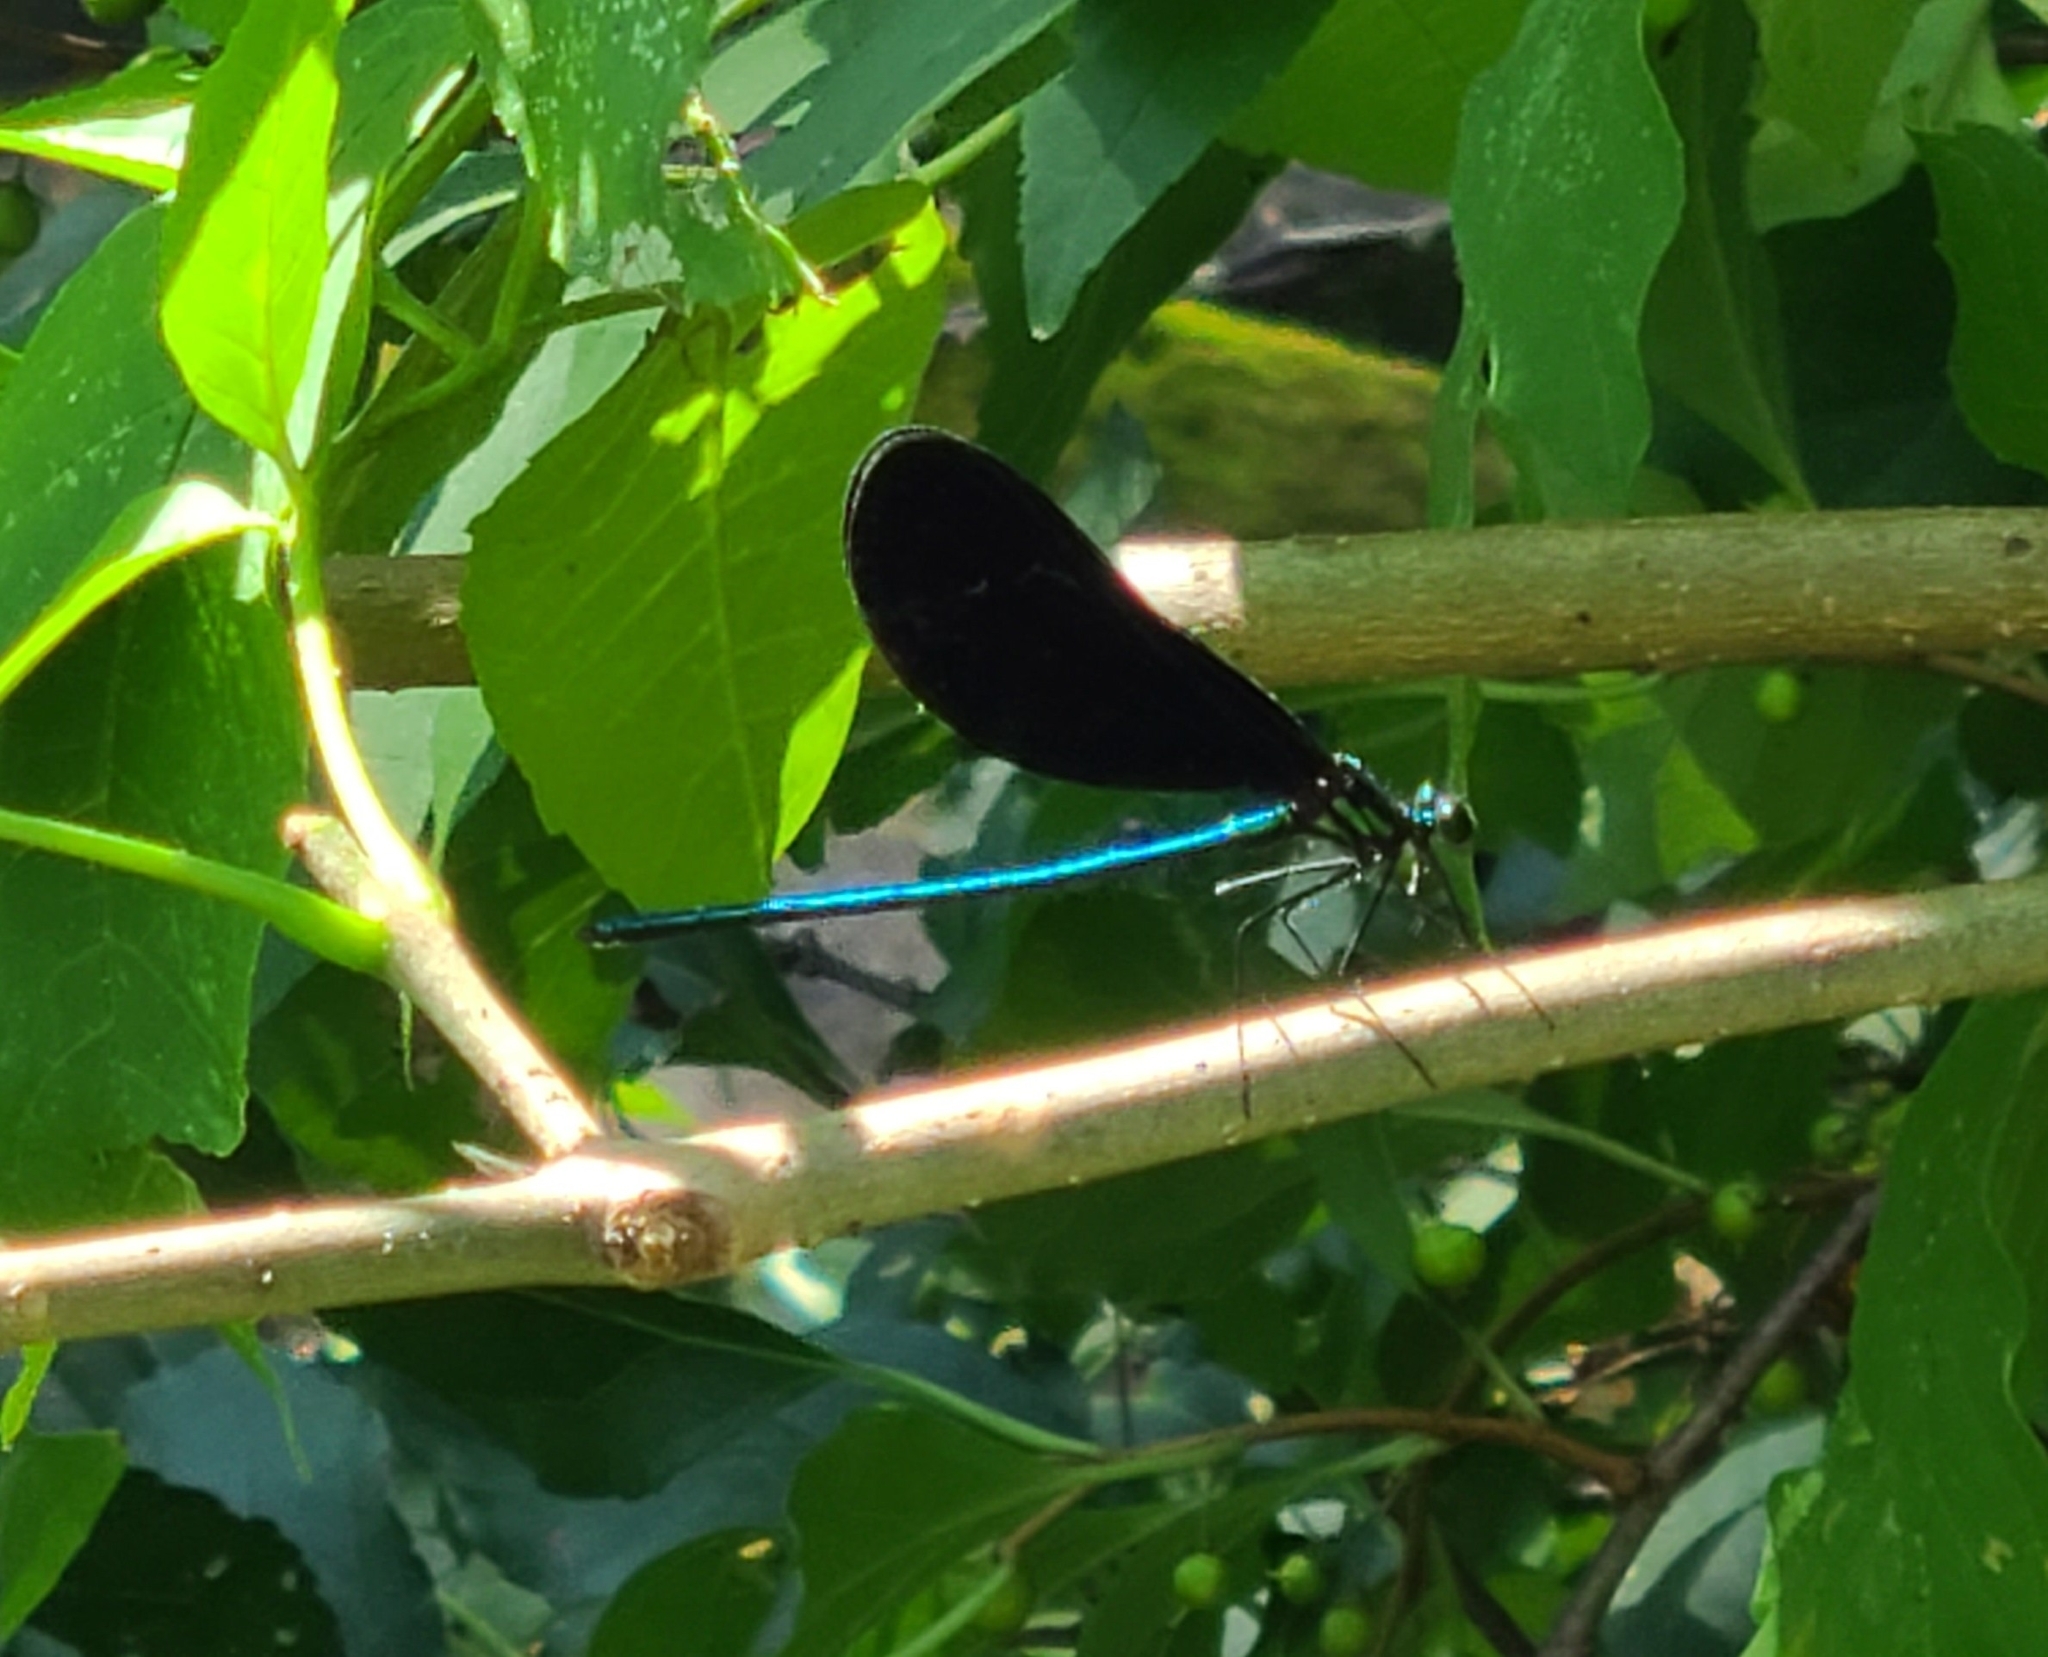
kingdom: Animalia
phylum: Arthropoda
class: Insecta
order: Odonata
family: Calopterygidae
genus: Calopteryx
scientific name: Calopteryx maculata
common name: Ebony jewelwing
